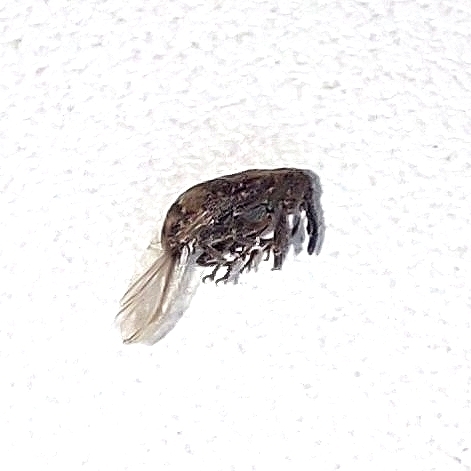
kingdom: Animalia
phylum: Arthropoda
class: Insecta
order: Coleoptera
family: Curculionidae
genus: Anthonomus
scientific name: Anthonomus pomorum
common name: Apple-blossom weevil
